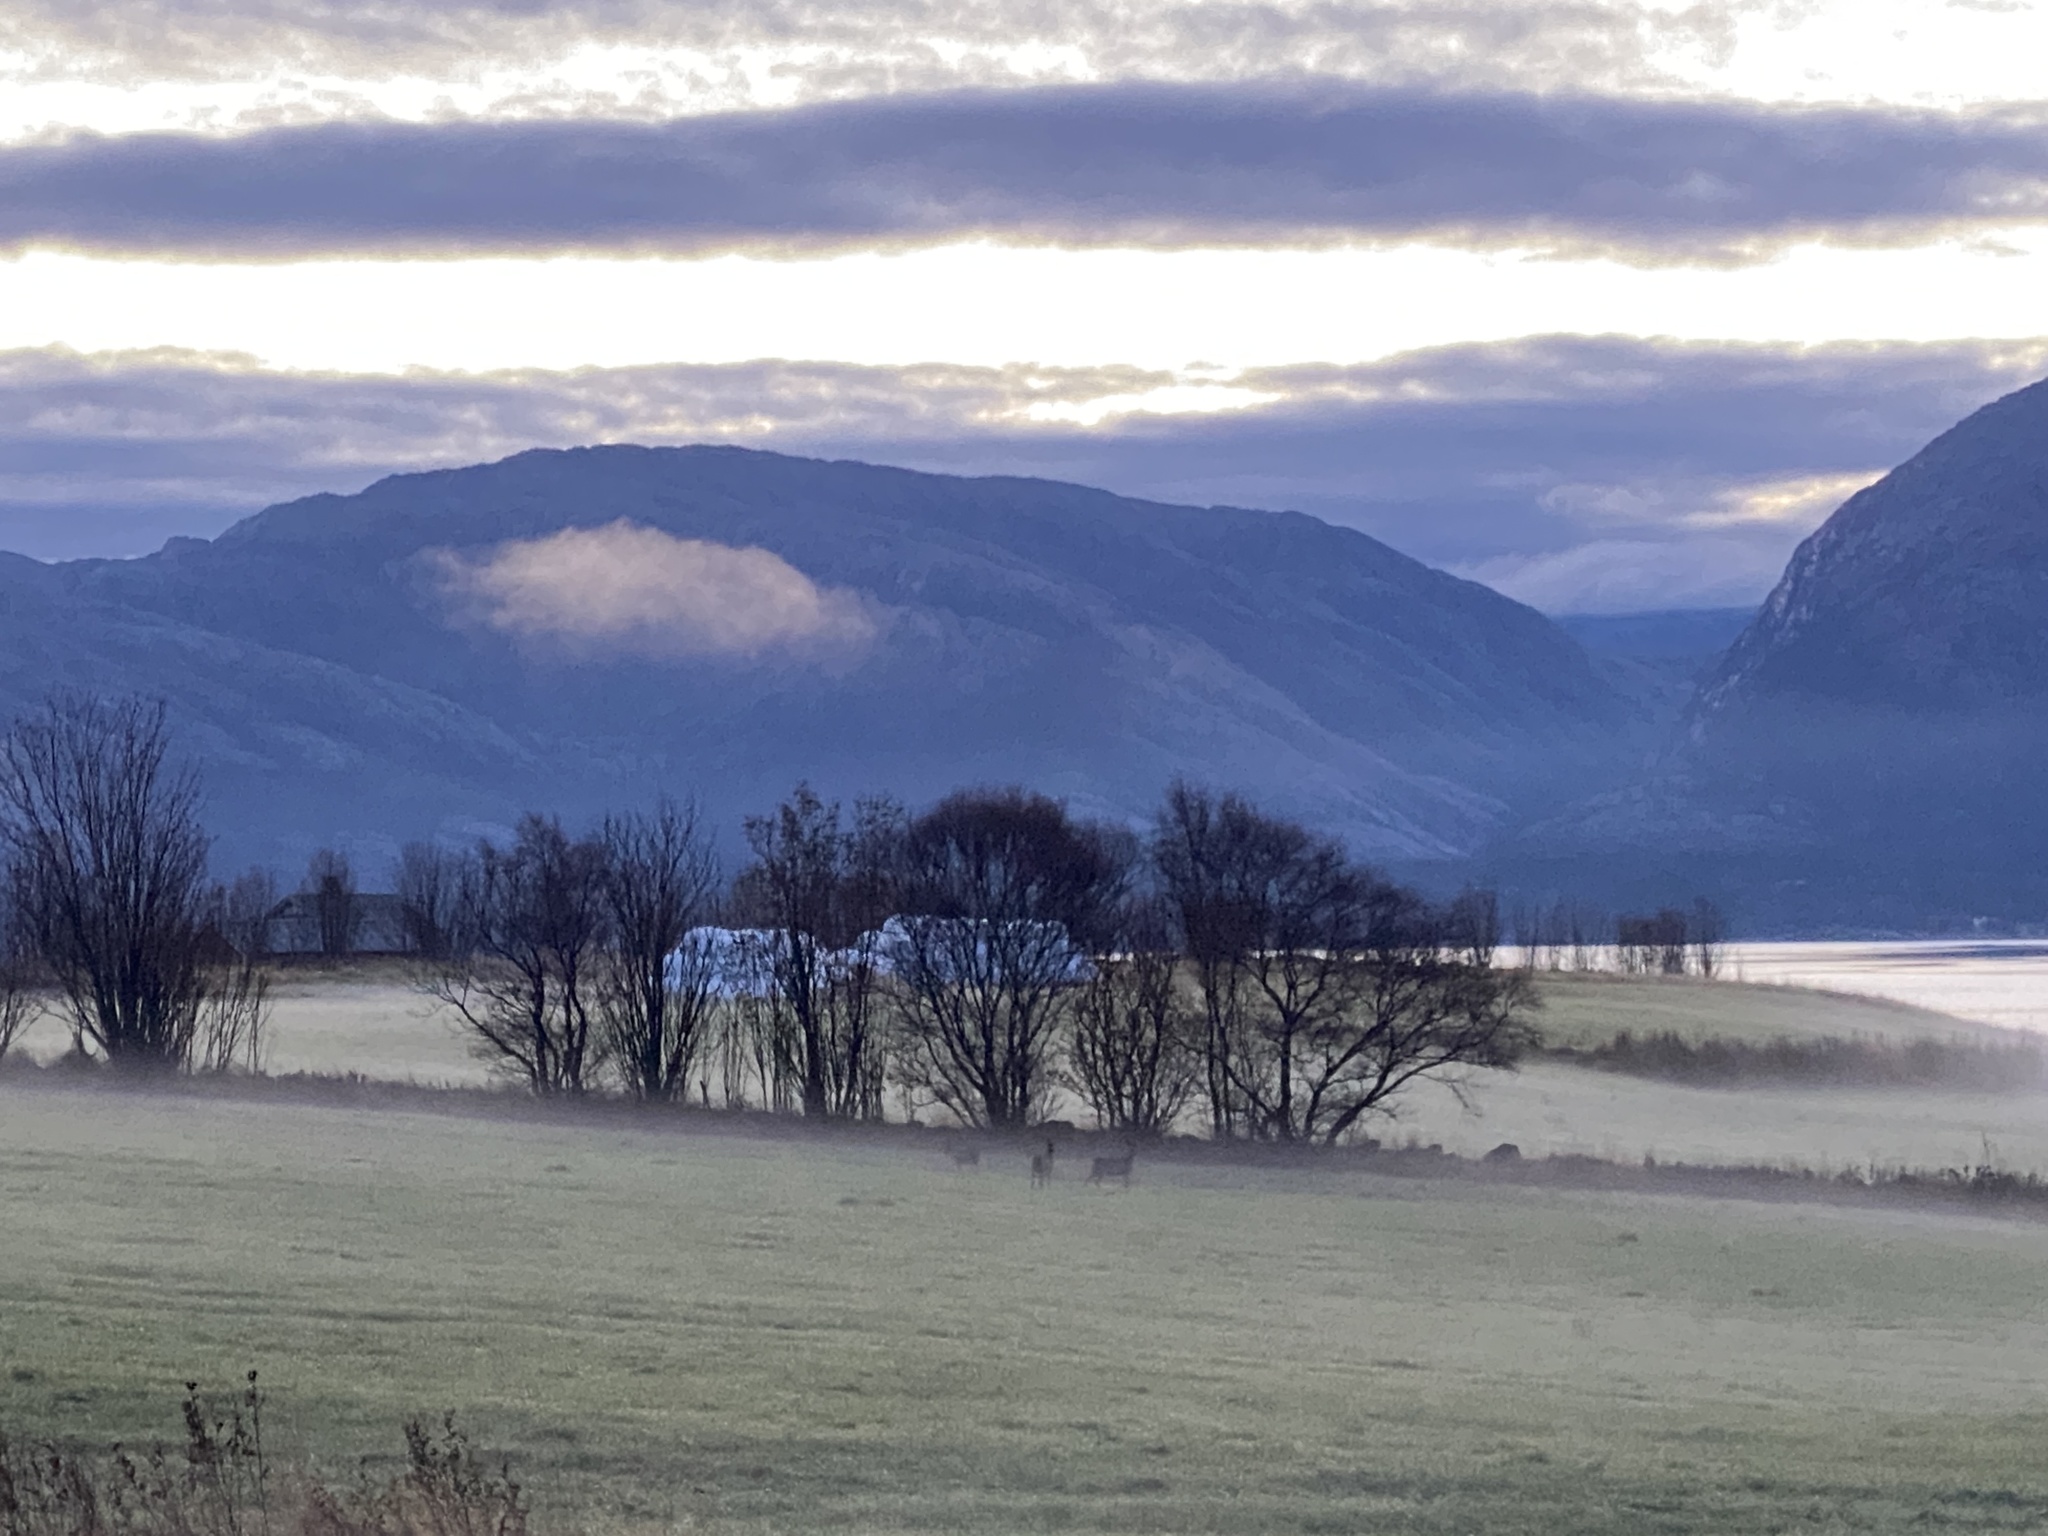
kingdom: Animalia
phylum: Chordata
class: Mammalia
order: Artiodactyla
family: Cervidae
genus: Capreolus
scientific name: Capreolus capreolus
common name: Western roe deer
